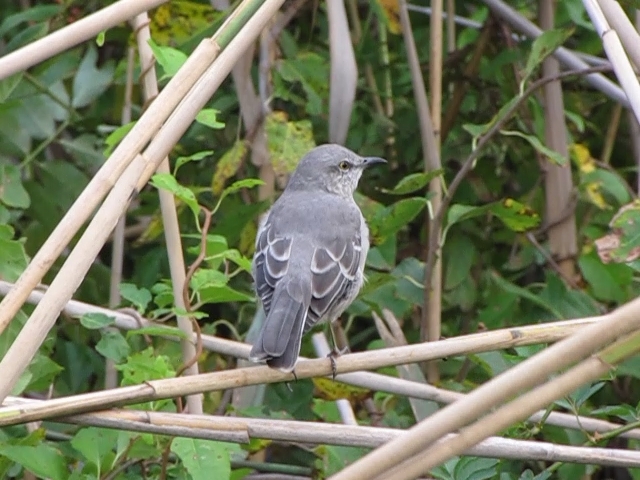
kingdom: Animalia
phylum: Chordata
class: Aves
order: Passeriformes
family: Mimidae
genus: Mimus
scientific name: Mimus polyglottos
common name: Northern mockingbird
